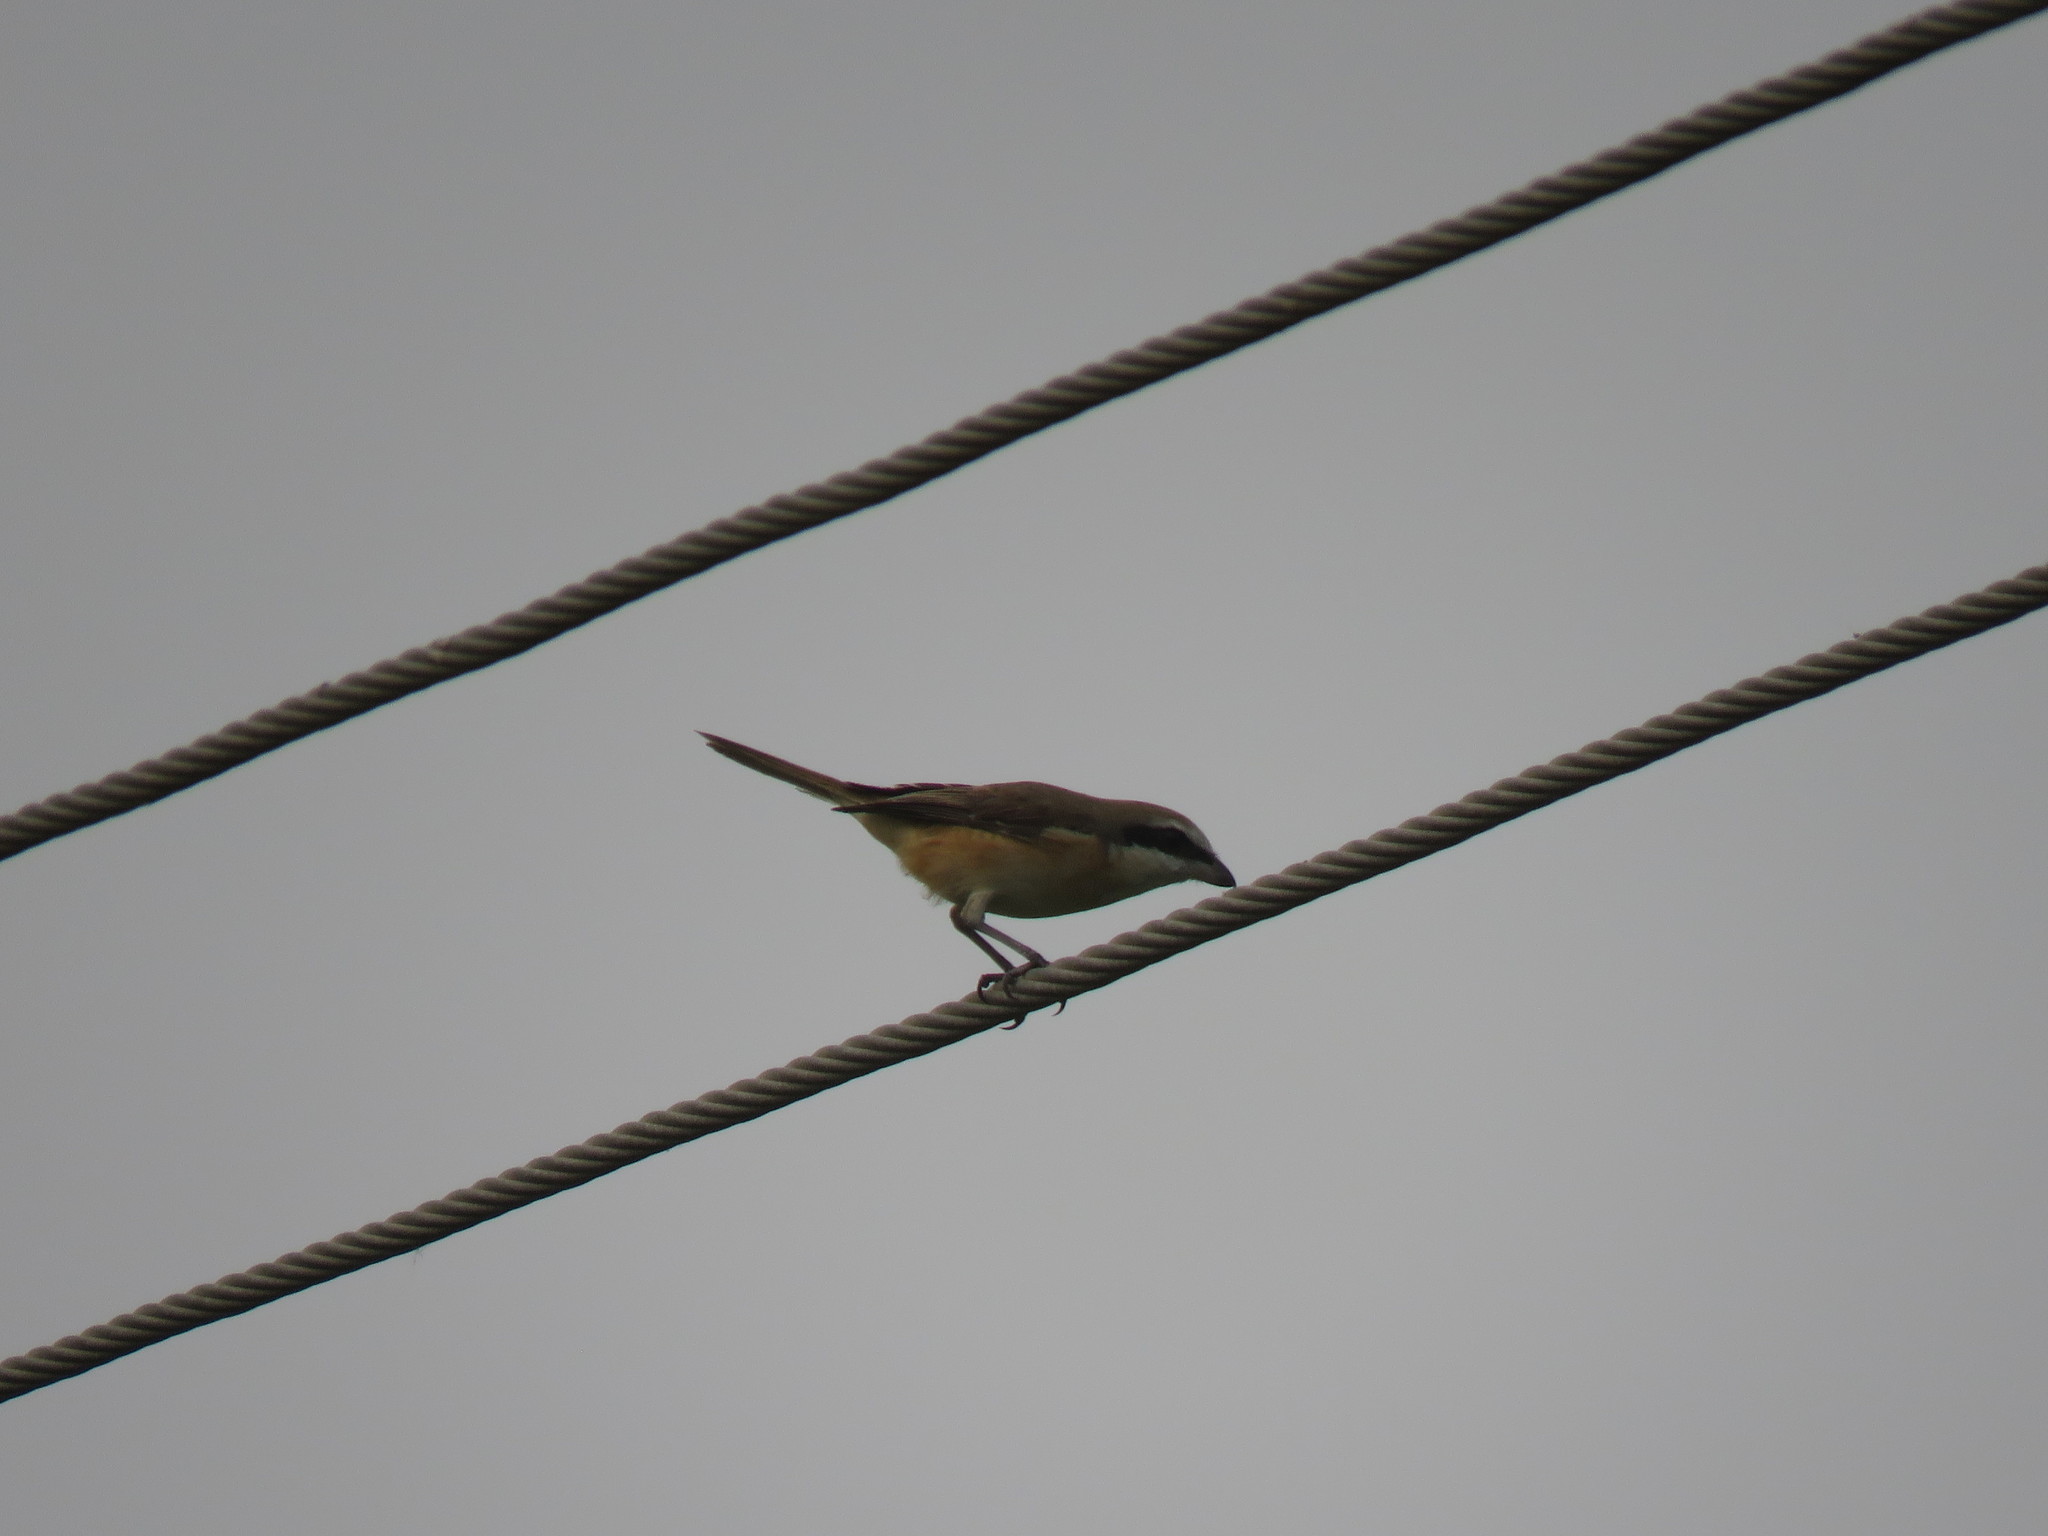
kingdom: Animalia
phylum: Chordata
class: Aves
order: Passeriformes
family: Laniidae
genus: Lanius
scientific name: Lanius cristatus
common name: Brown shrike
